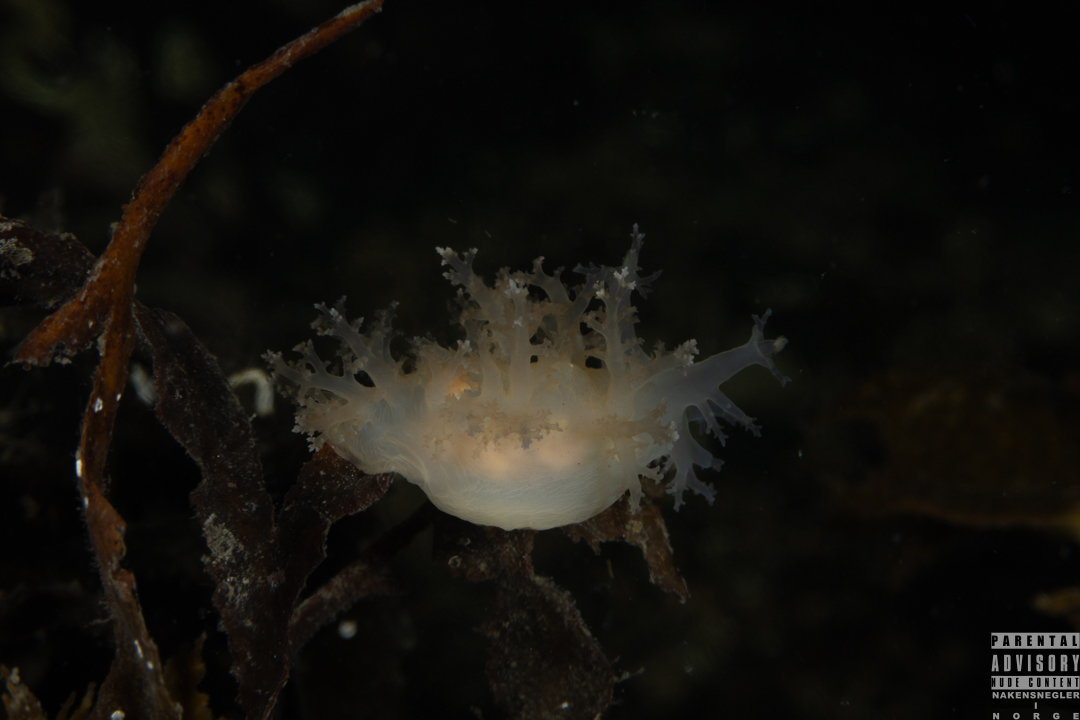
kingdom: Animalia
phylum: Mollusca
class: Gastropoda
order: Nudibranchia
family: Dendronotidae
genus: Dendronotus
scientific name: Dendronotus lacteus
